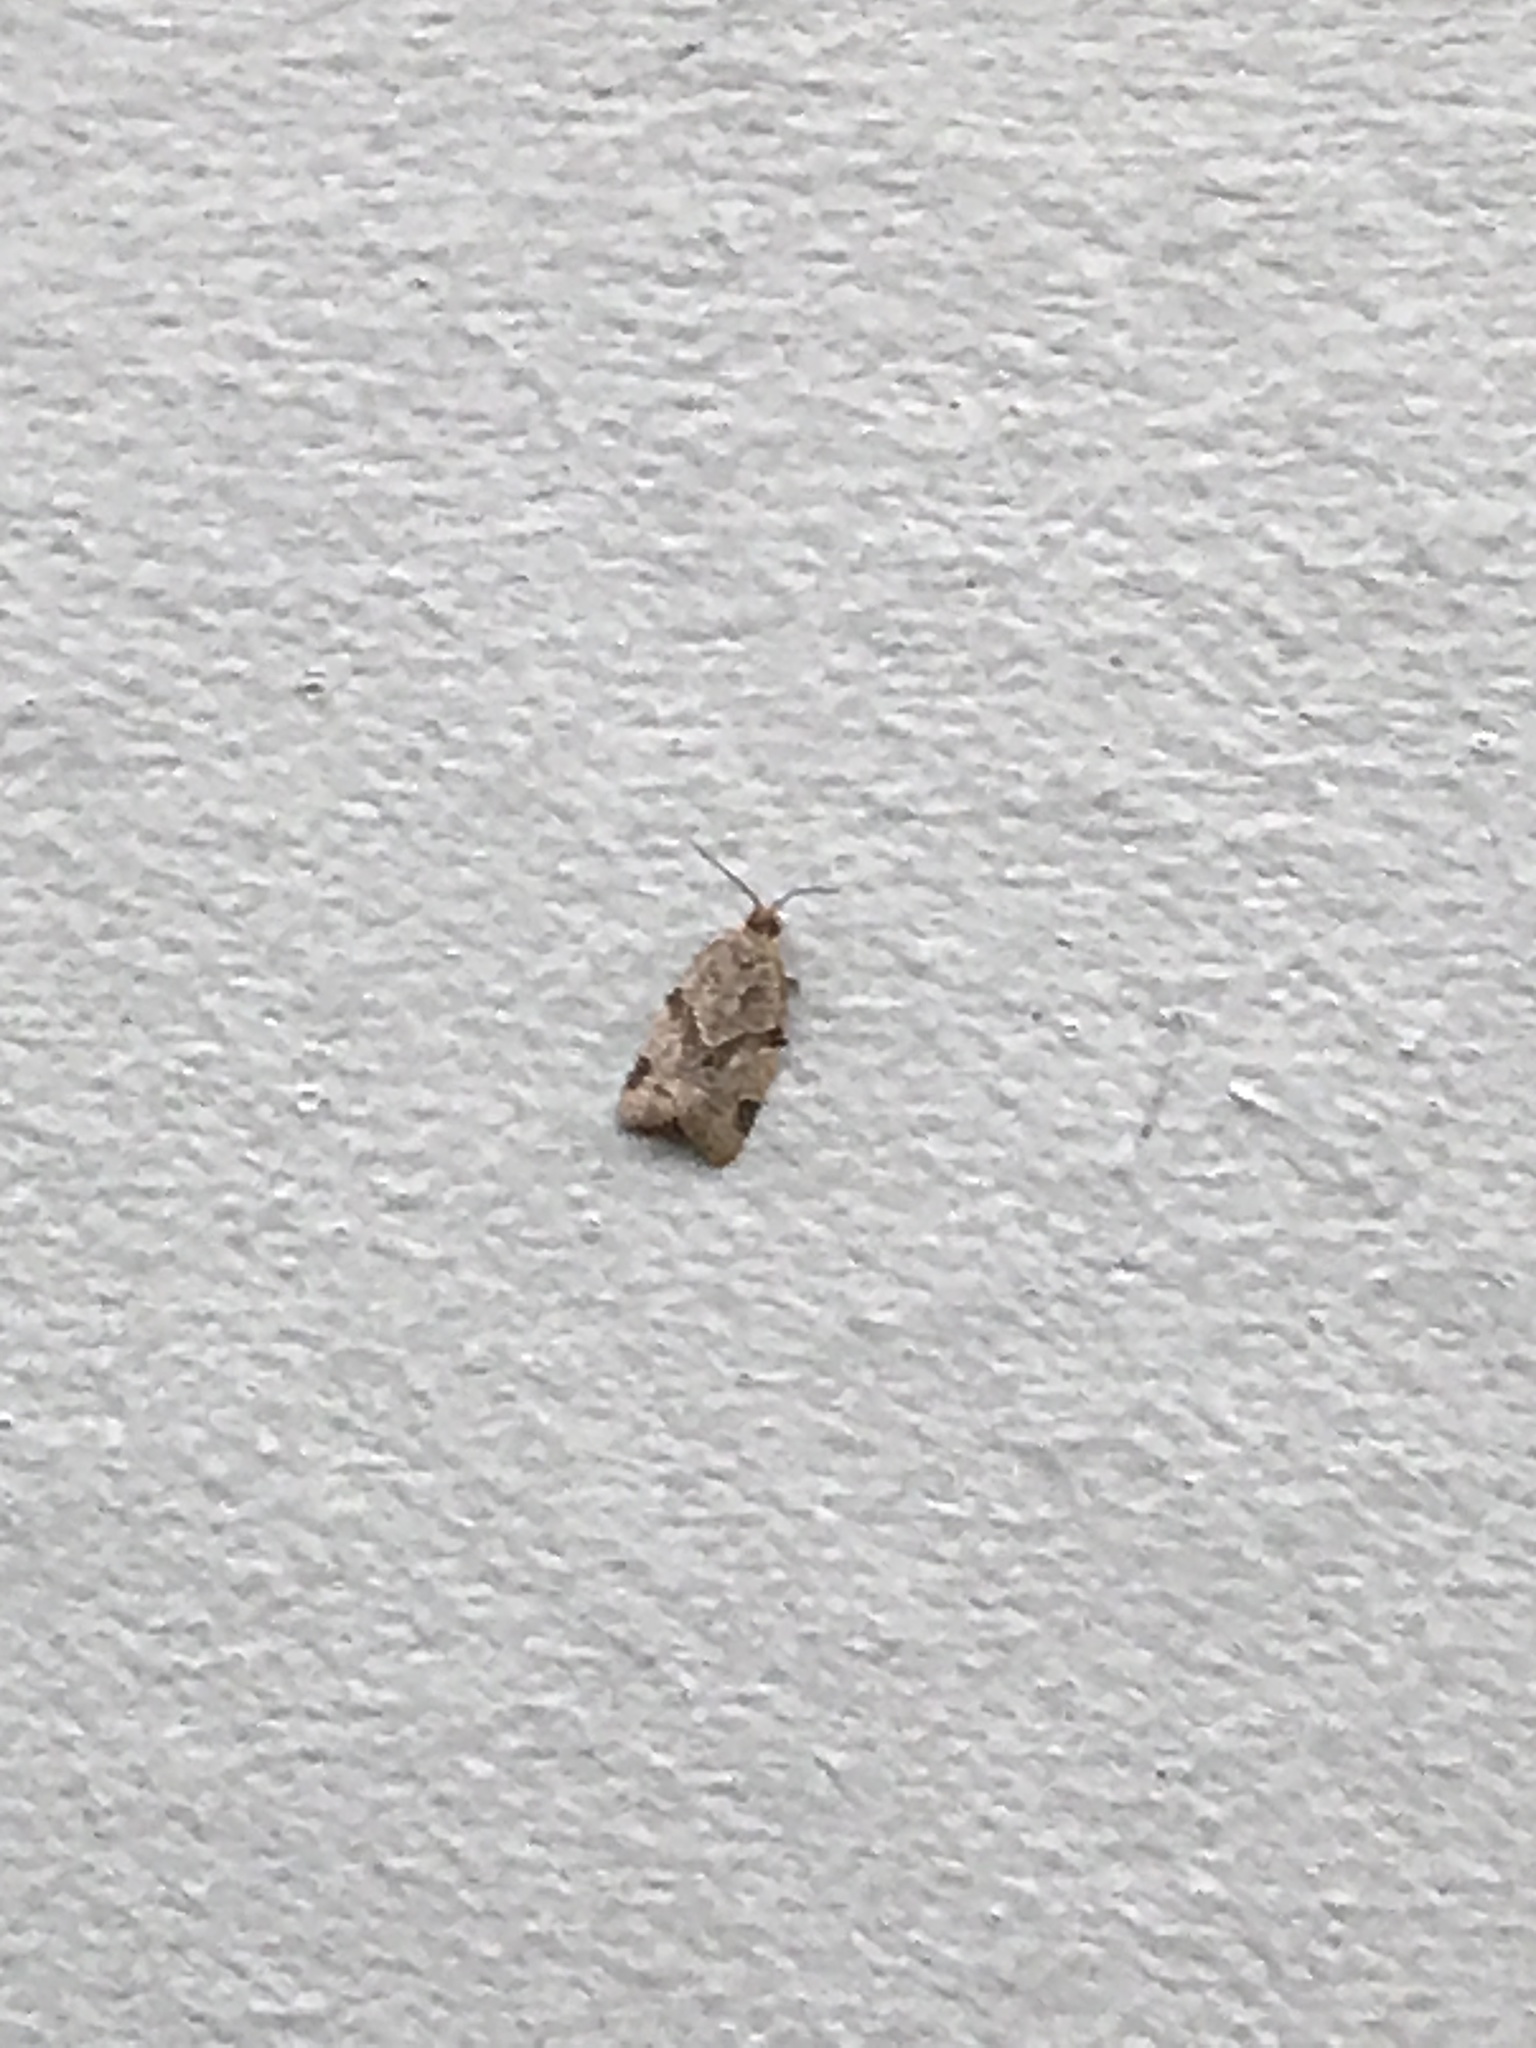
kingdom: Animalia
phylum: Arthropoda
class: Insecta
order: Lepidoptera
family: Tortricidae
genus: Clepsis
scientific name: Clepsis peritana
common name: Garden tortrix
